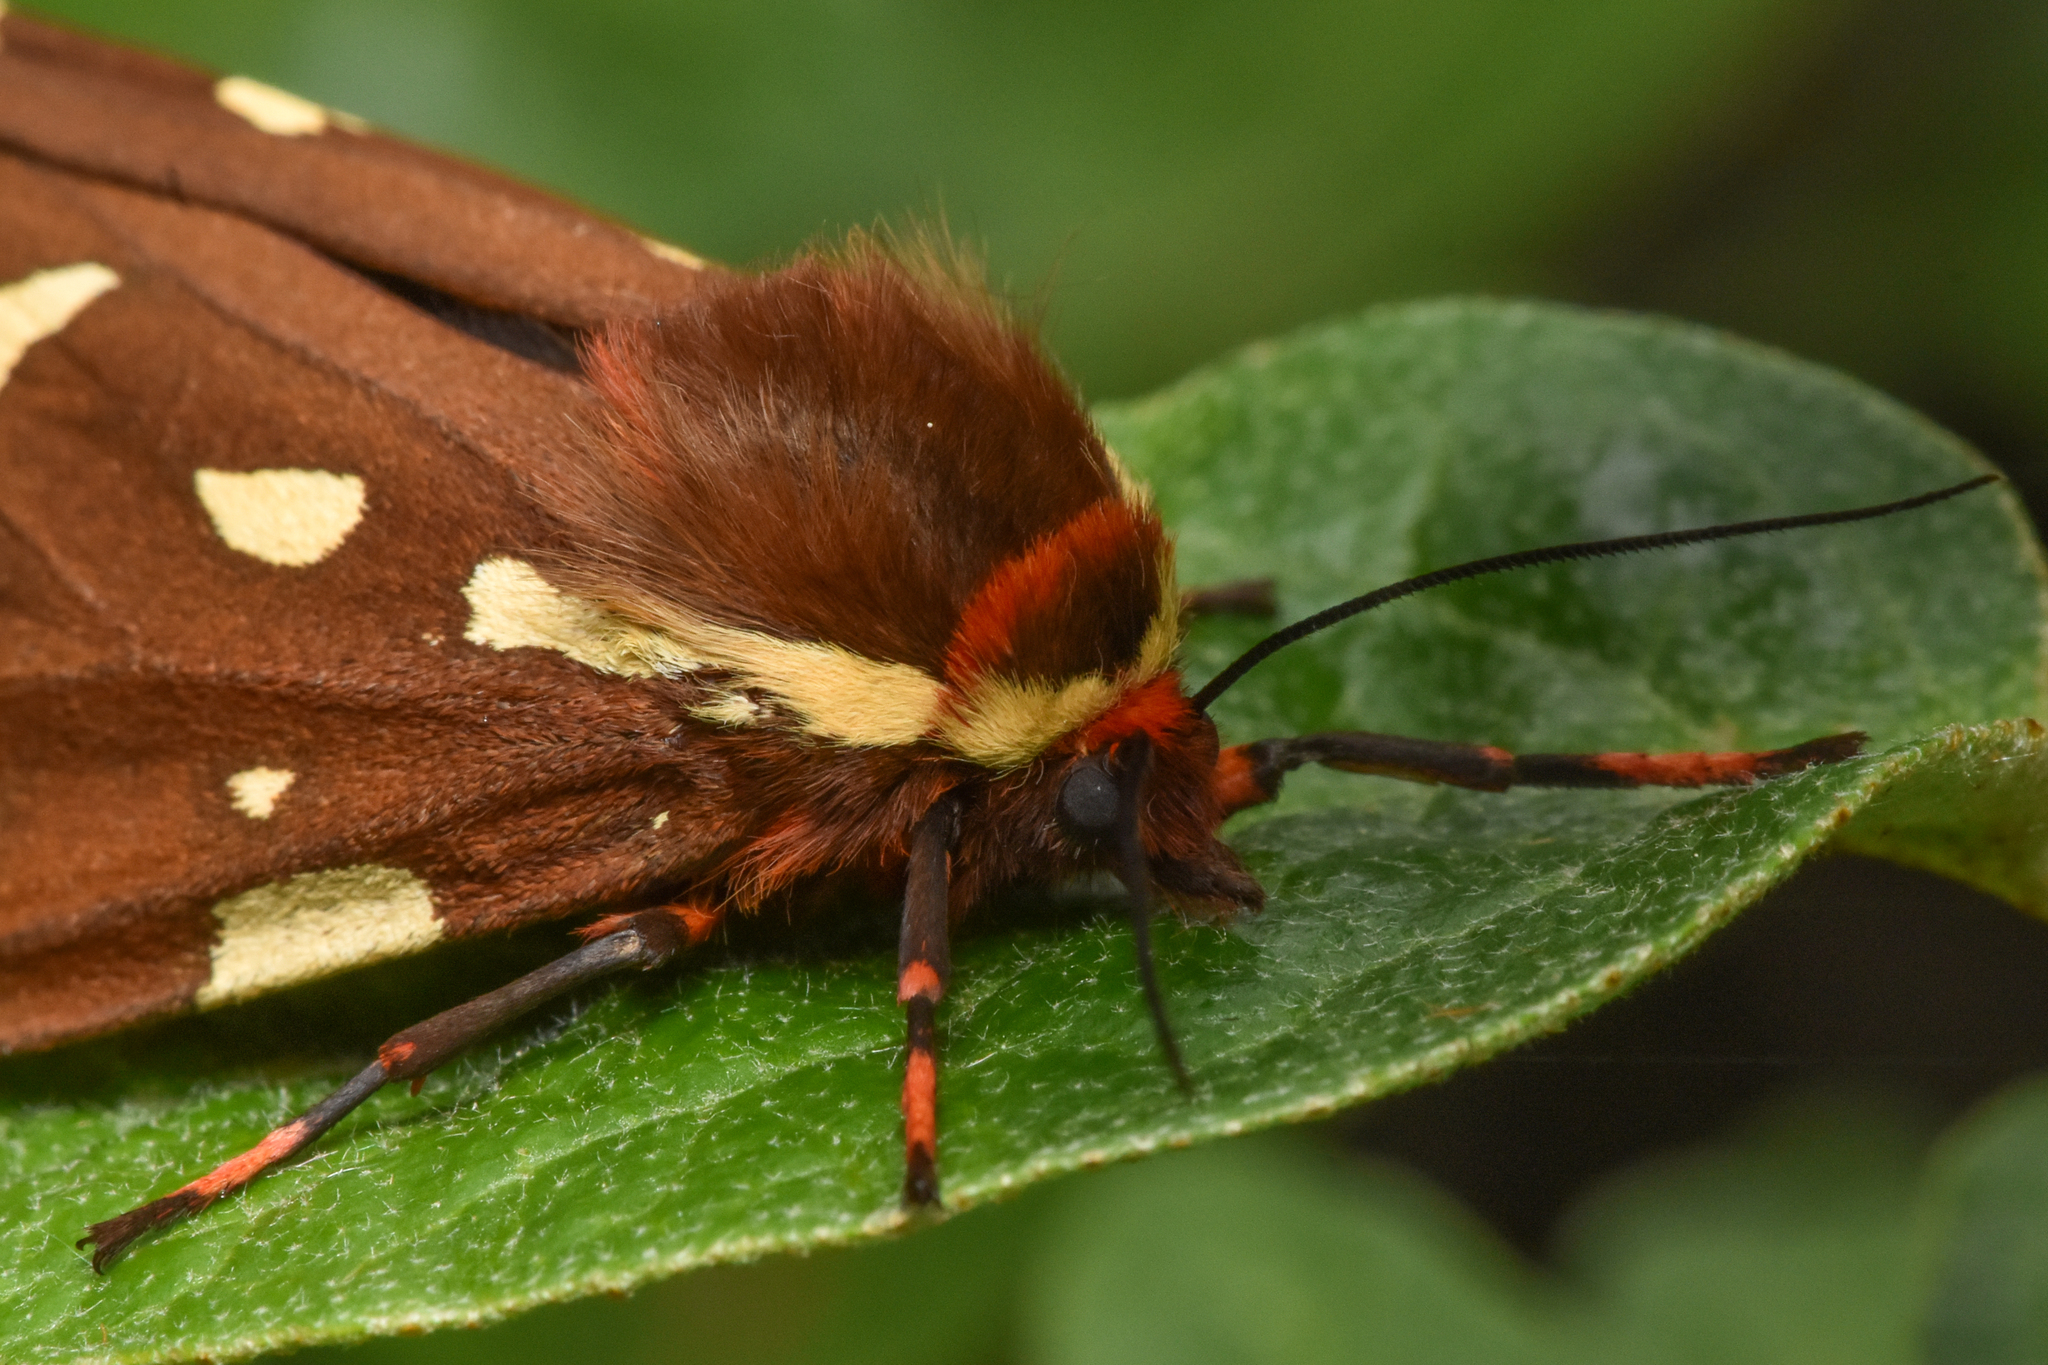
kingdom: Animalia
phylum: Arthropoda
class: Insecta
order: Lepidoptera
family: Erebidae
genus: Arctia
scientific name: Arctia parthenos
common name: St. lawrence tiger moth
